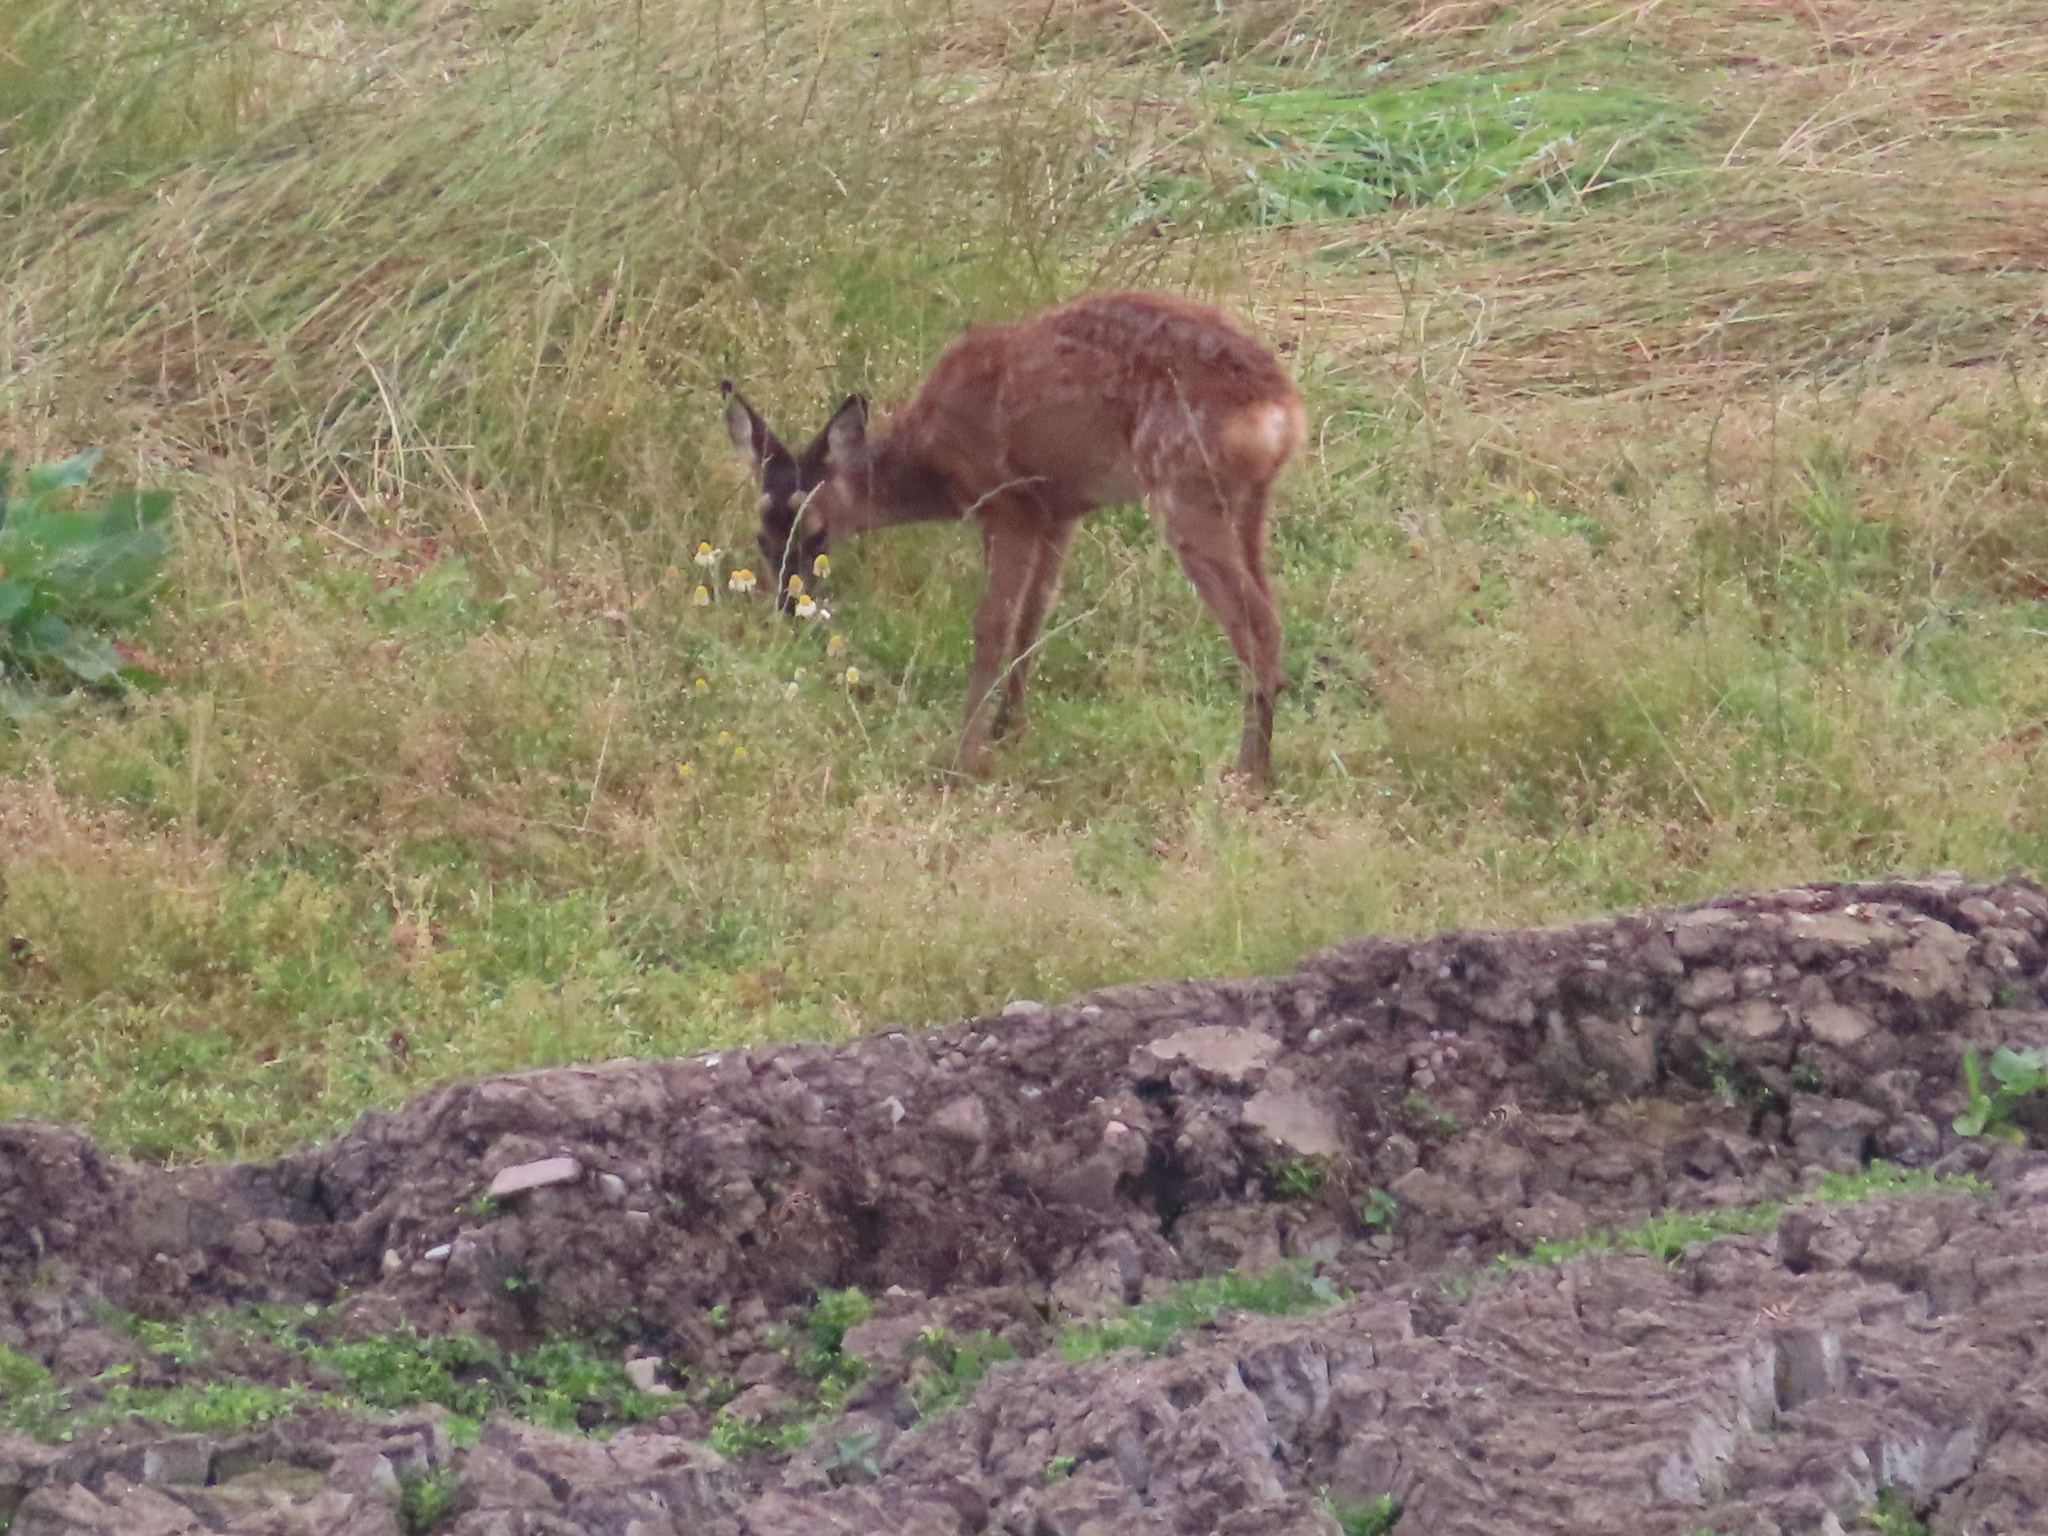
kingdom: Animalia
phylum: Chordata
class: Mammalia
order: Artiodactyla
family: Cervidae
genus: Capreolus
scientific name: Capreolus capreolus
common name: Western roe deer
